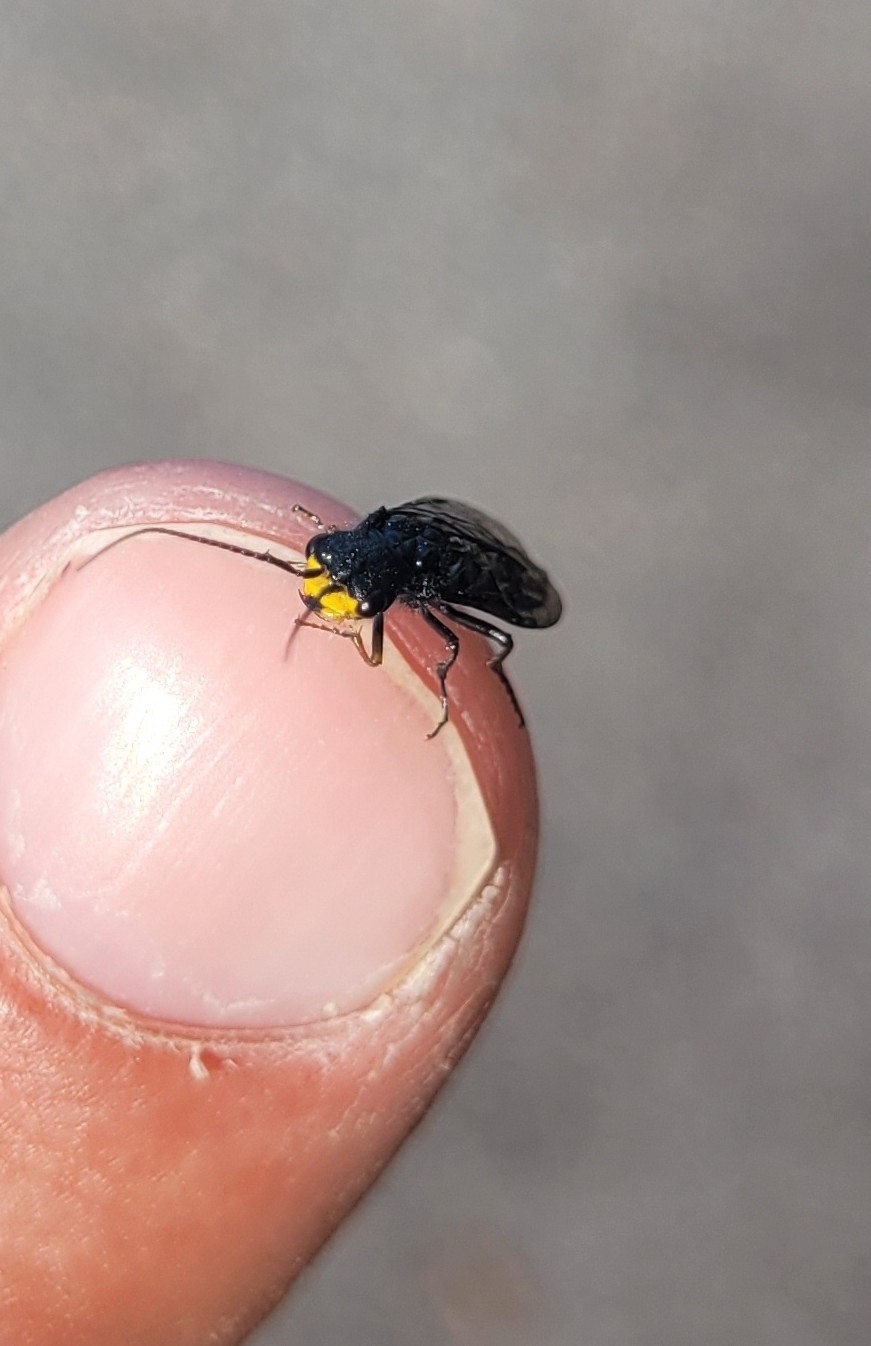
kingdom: Animalia
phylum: Arthropoda
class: Insecta
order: Hymenoptera
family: Pamphiliidae
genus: Acantholyda
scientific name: Acantholyda erythrocephala
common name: Pine false webworm
